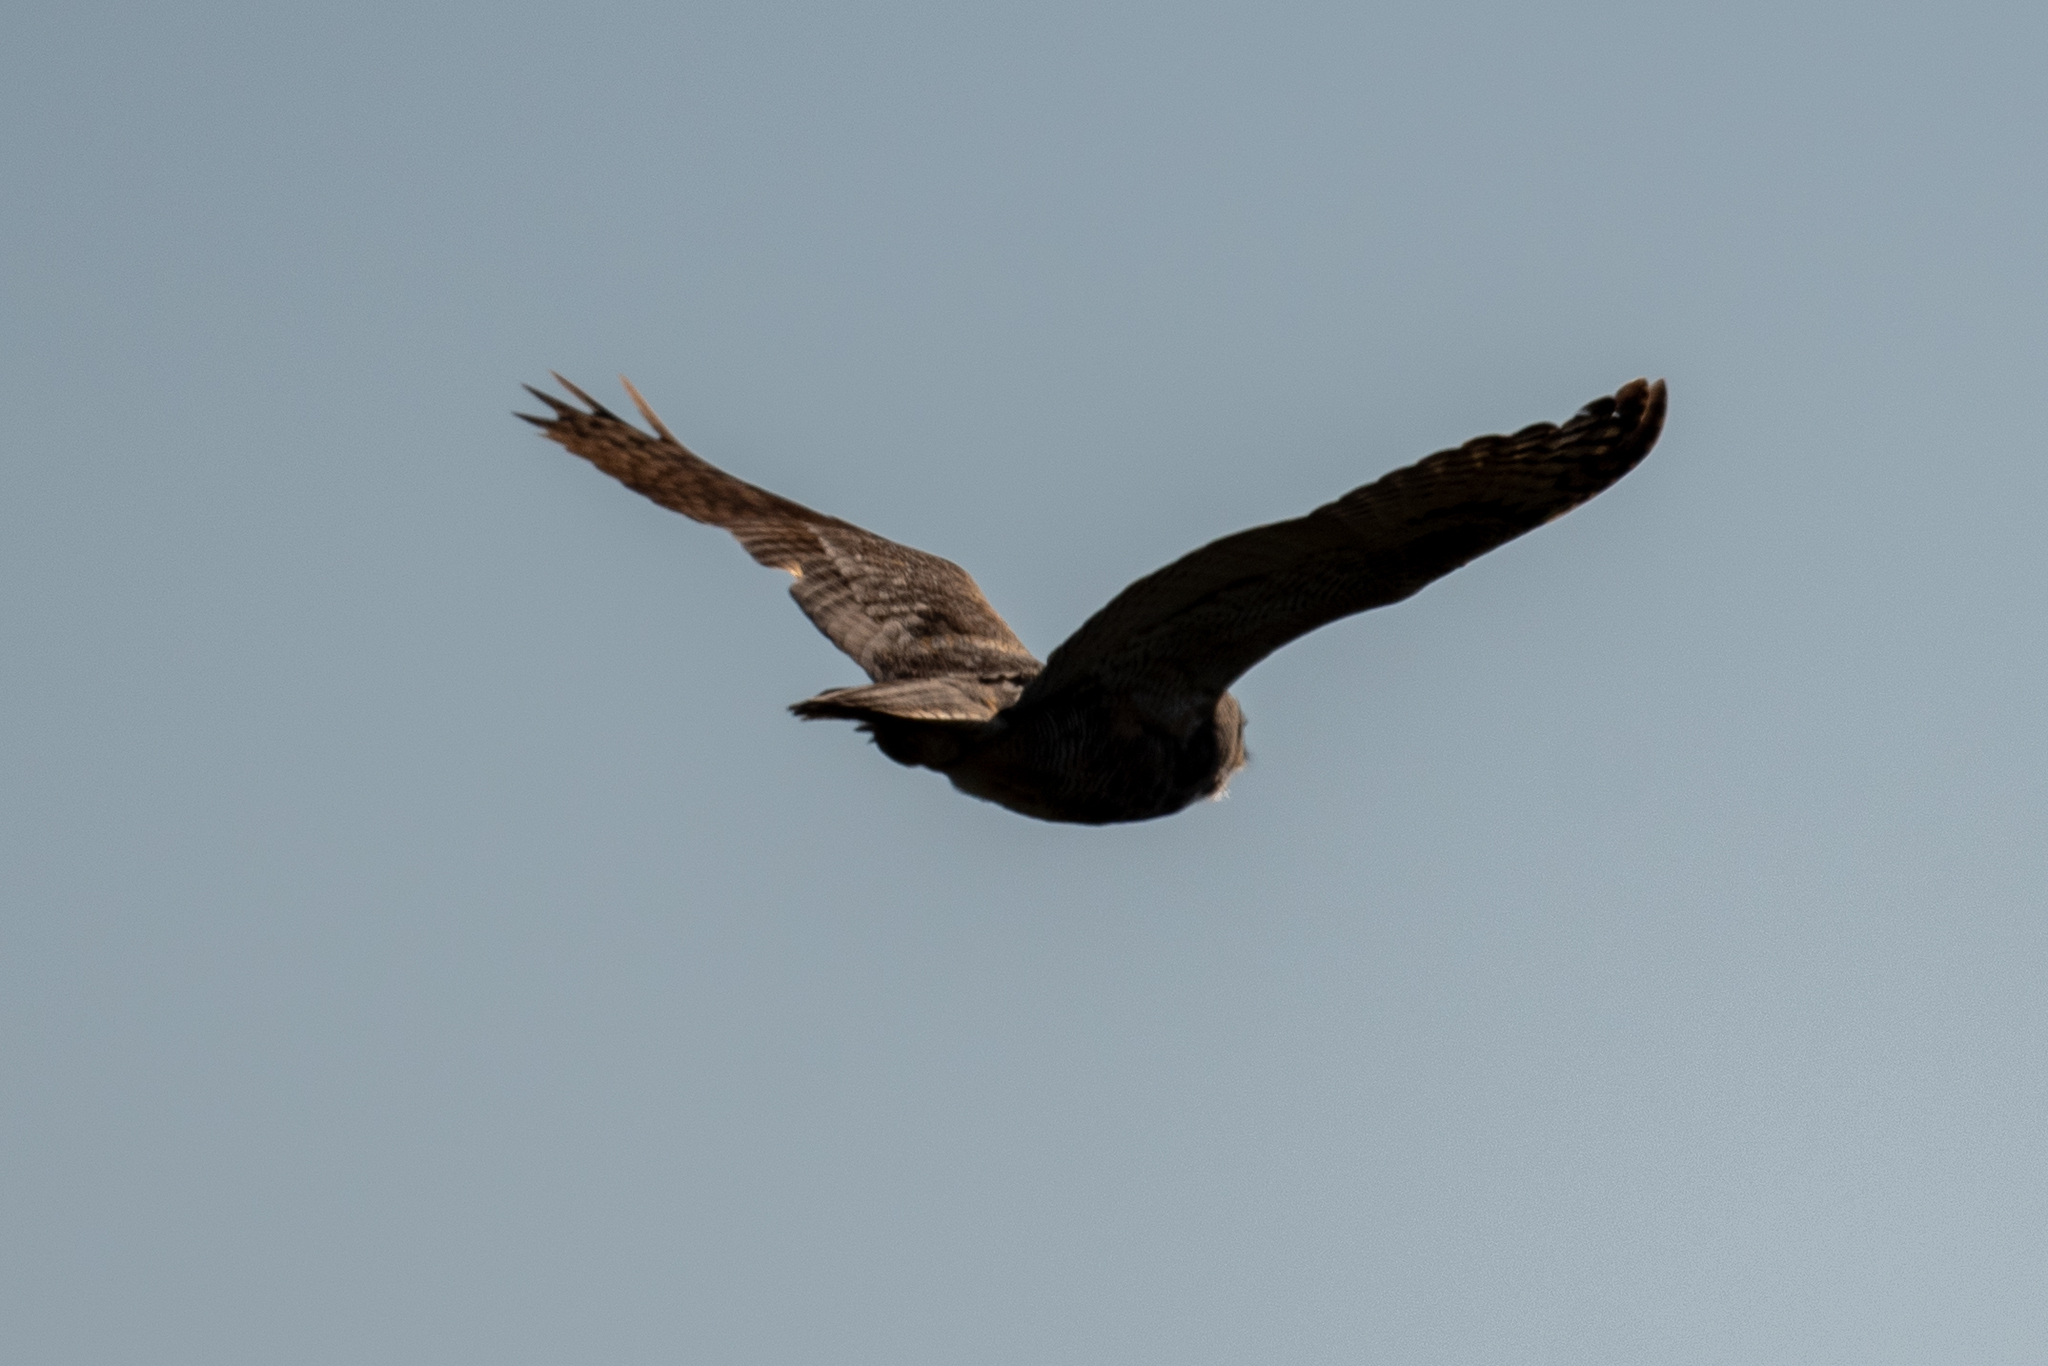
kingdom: Animalia
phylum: Chordata
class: Aves
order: Strigiformes
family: Strigidae
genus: Bubo
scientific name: Bubo virginianus
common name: Great horned owl
